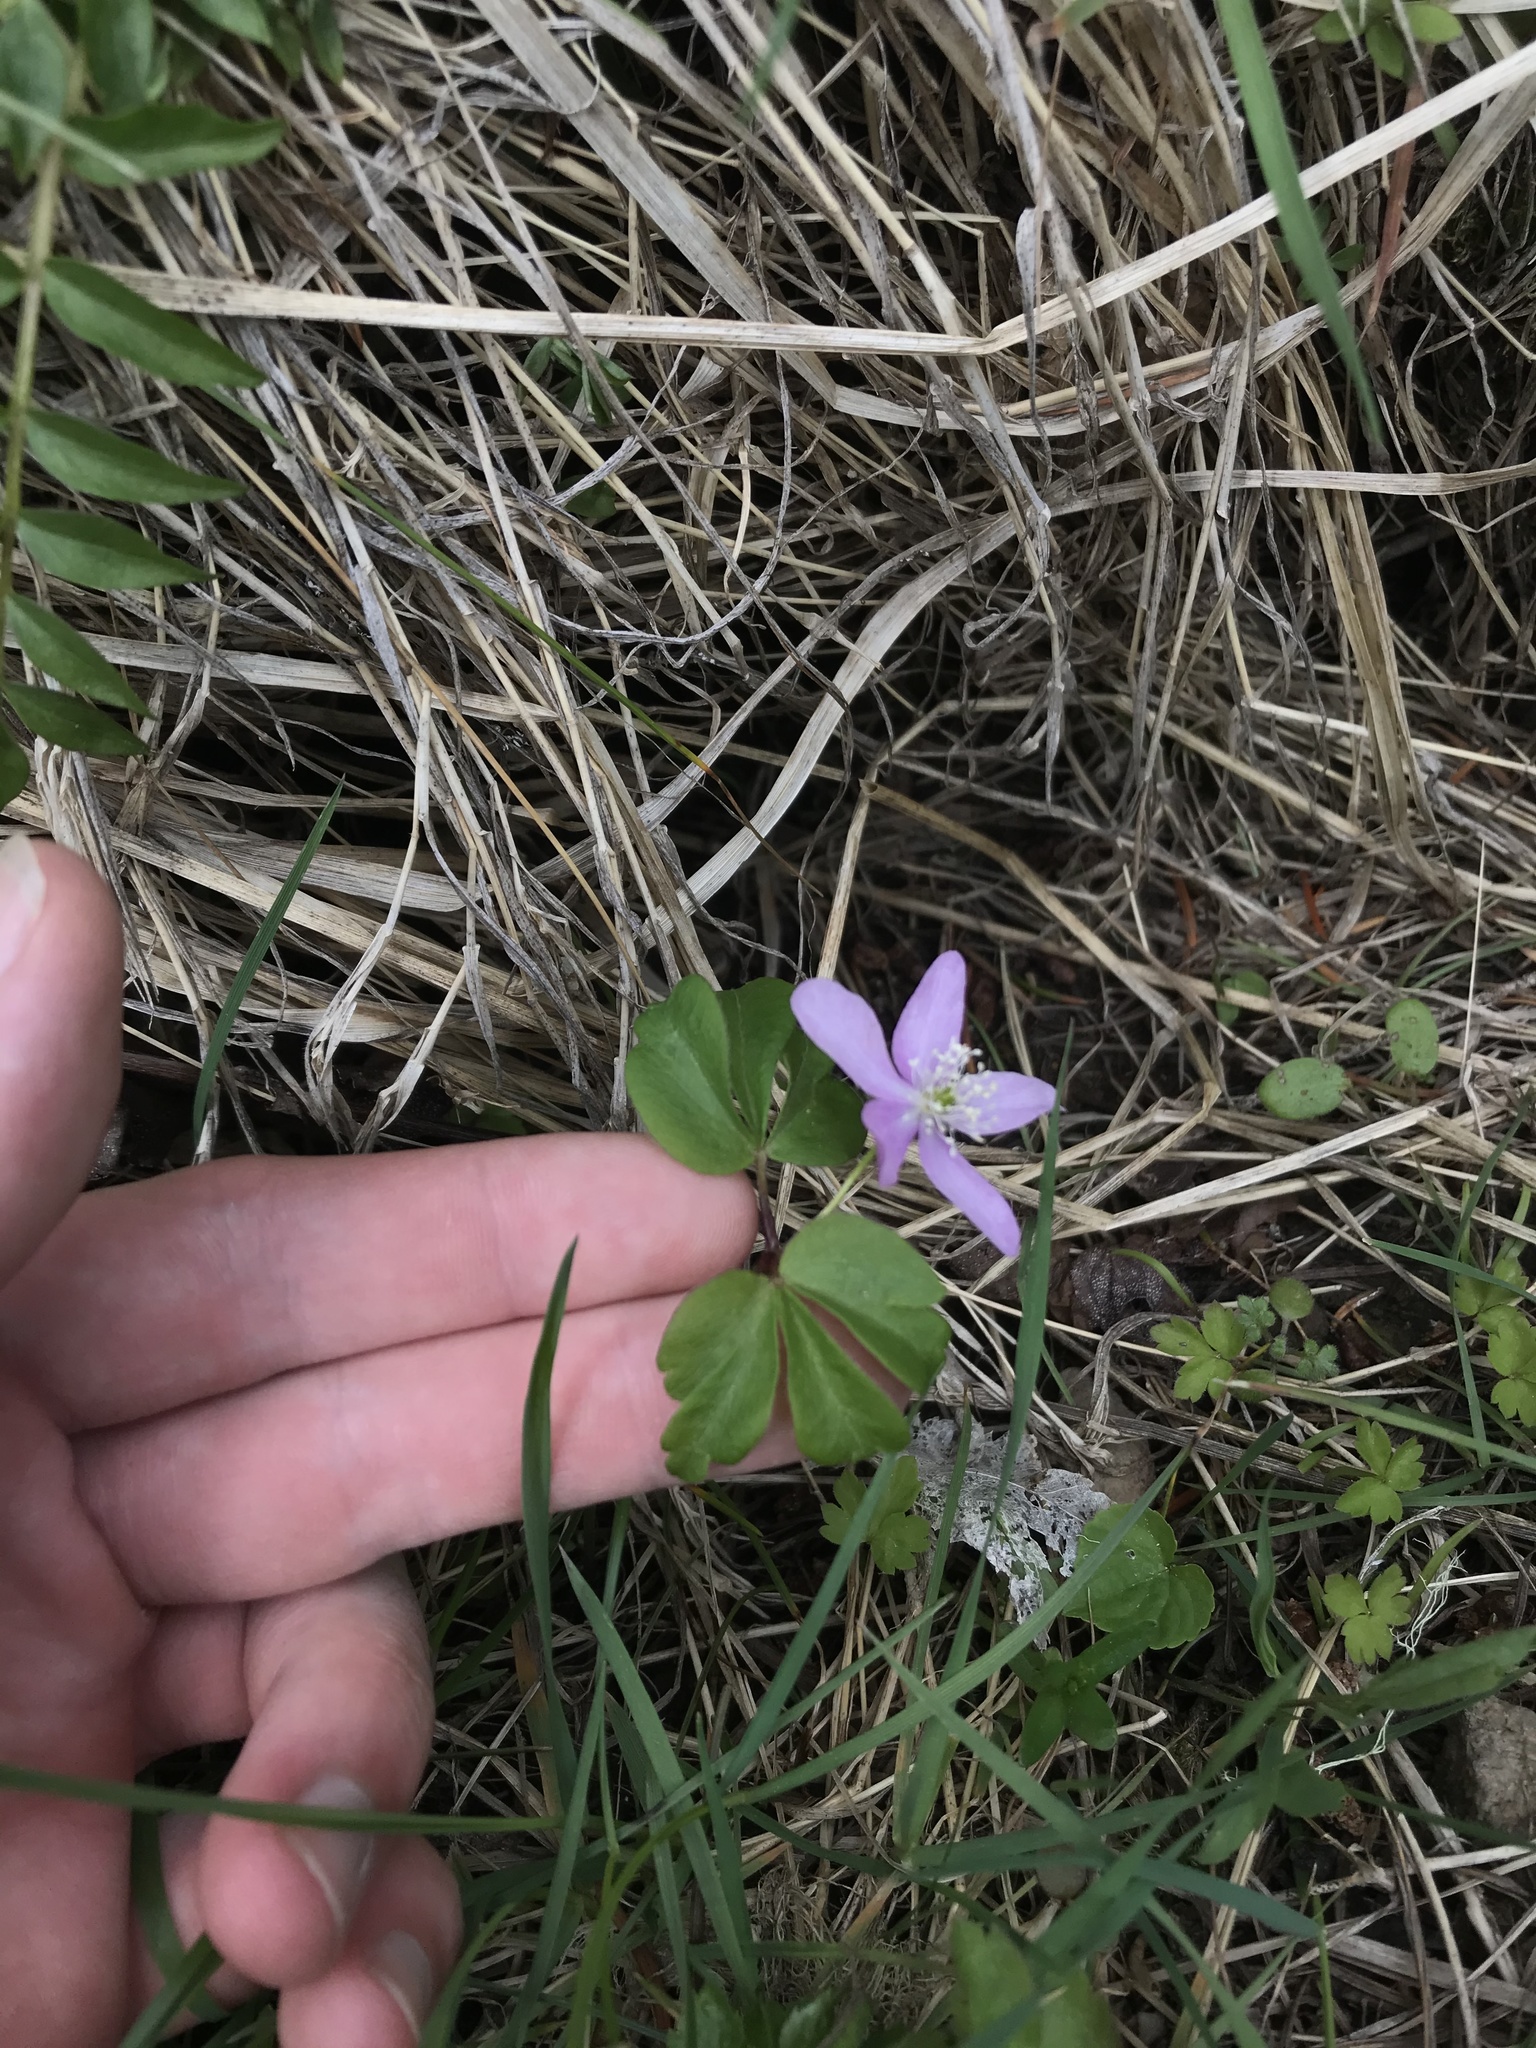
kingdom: Plantae
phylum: Tracheophyta
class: Magnoliopsida
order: Ranunculales
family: Ranunculaceae
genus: Anemone
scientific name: Anemone oregana
